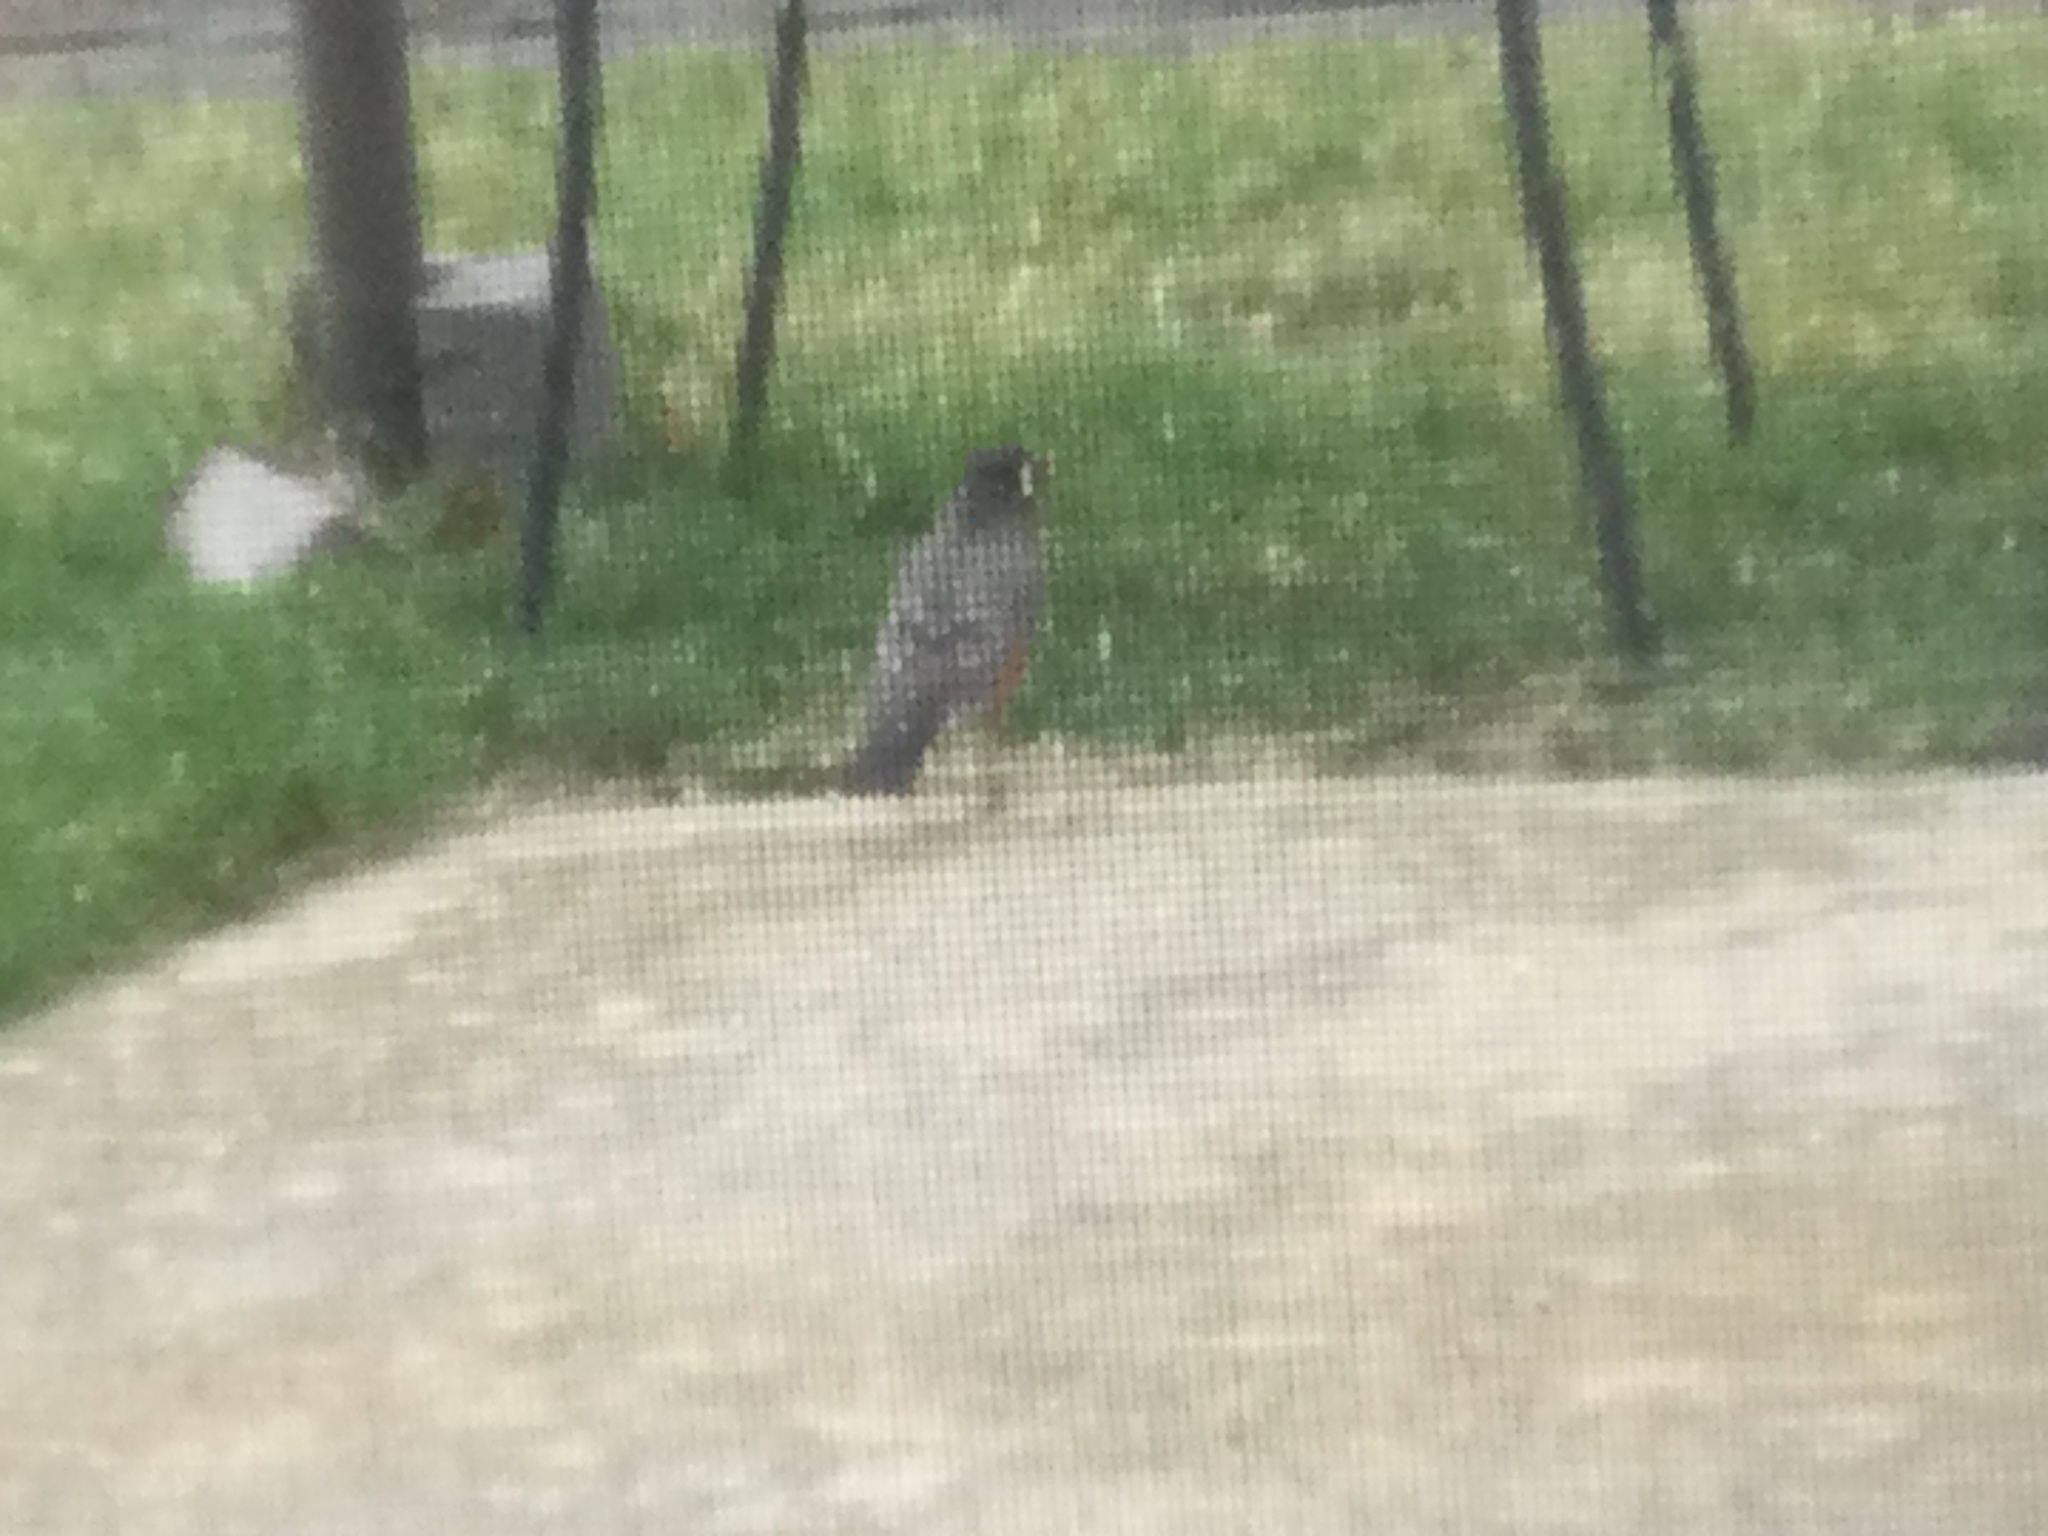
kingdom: Animalia
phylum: Chordata
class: Aves
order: Passeriformes
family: Turdidae
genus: Turdus
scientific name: Turdus migratorius
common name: American robin
